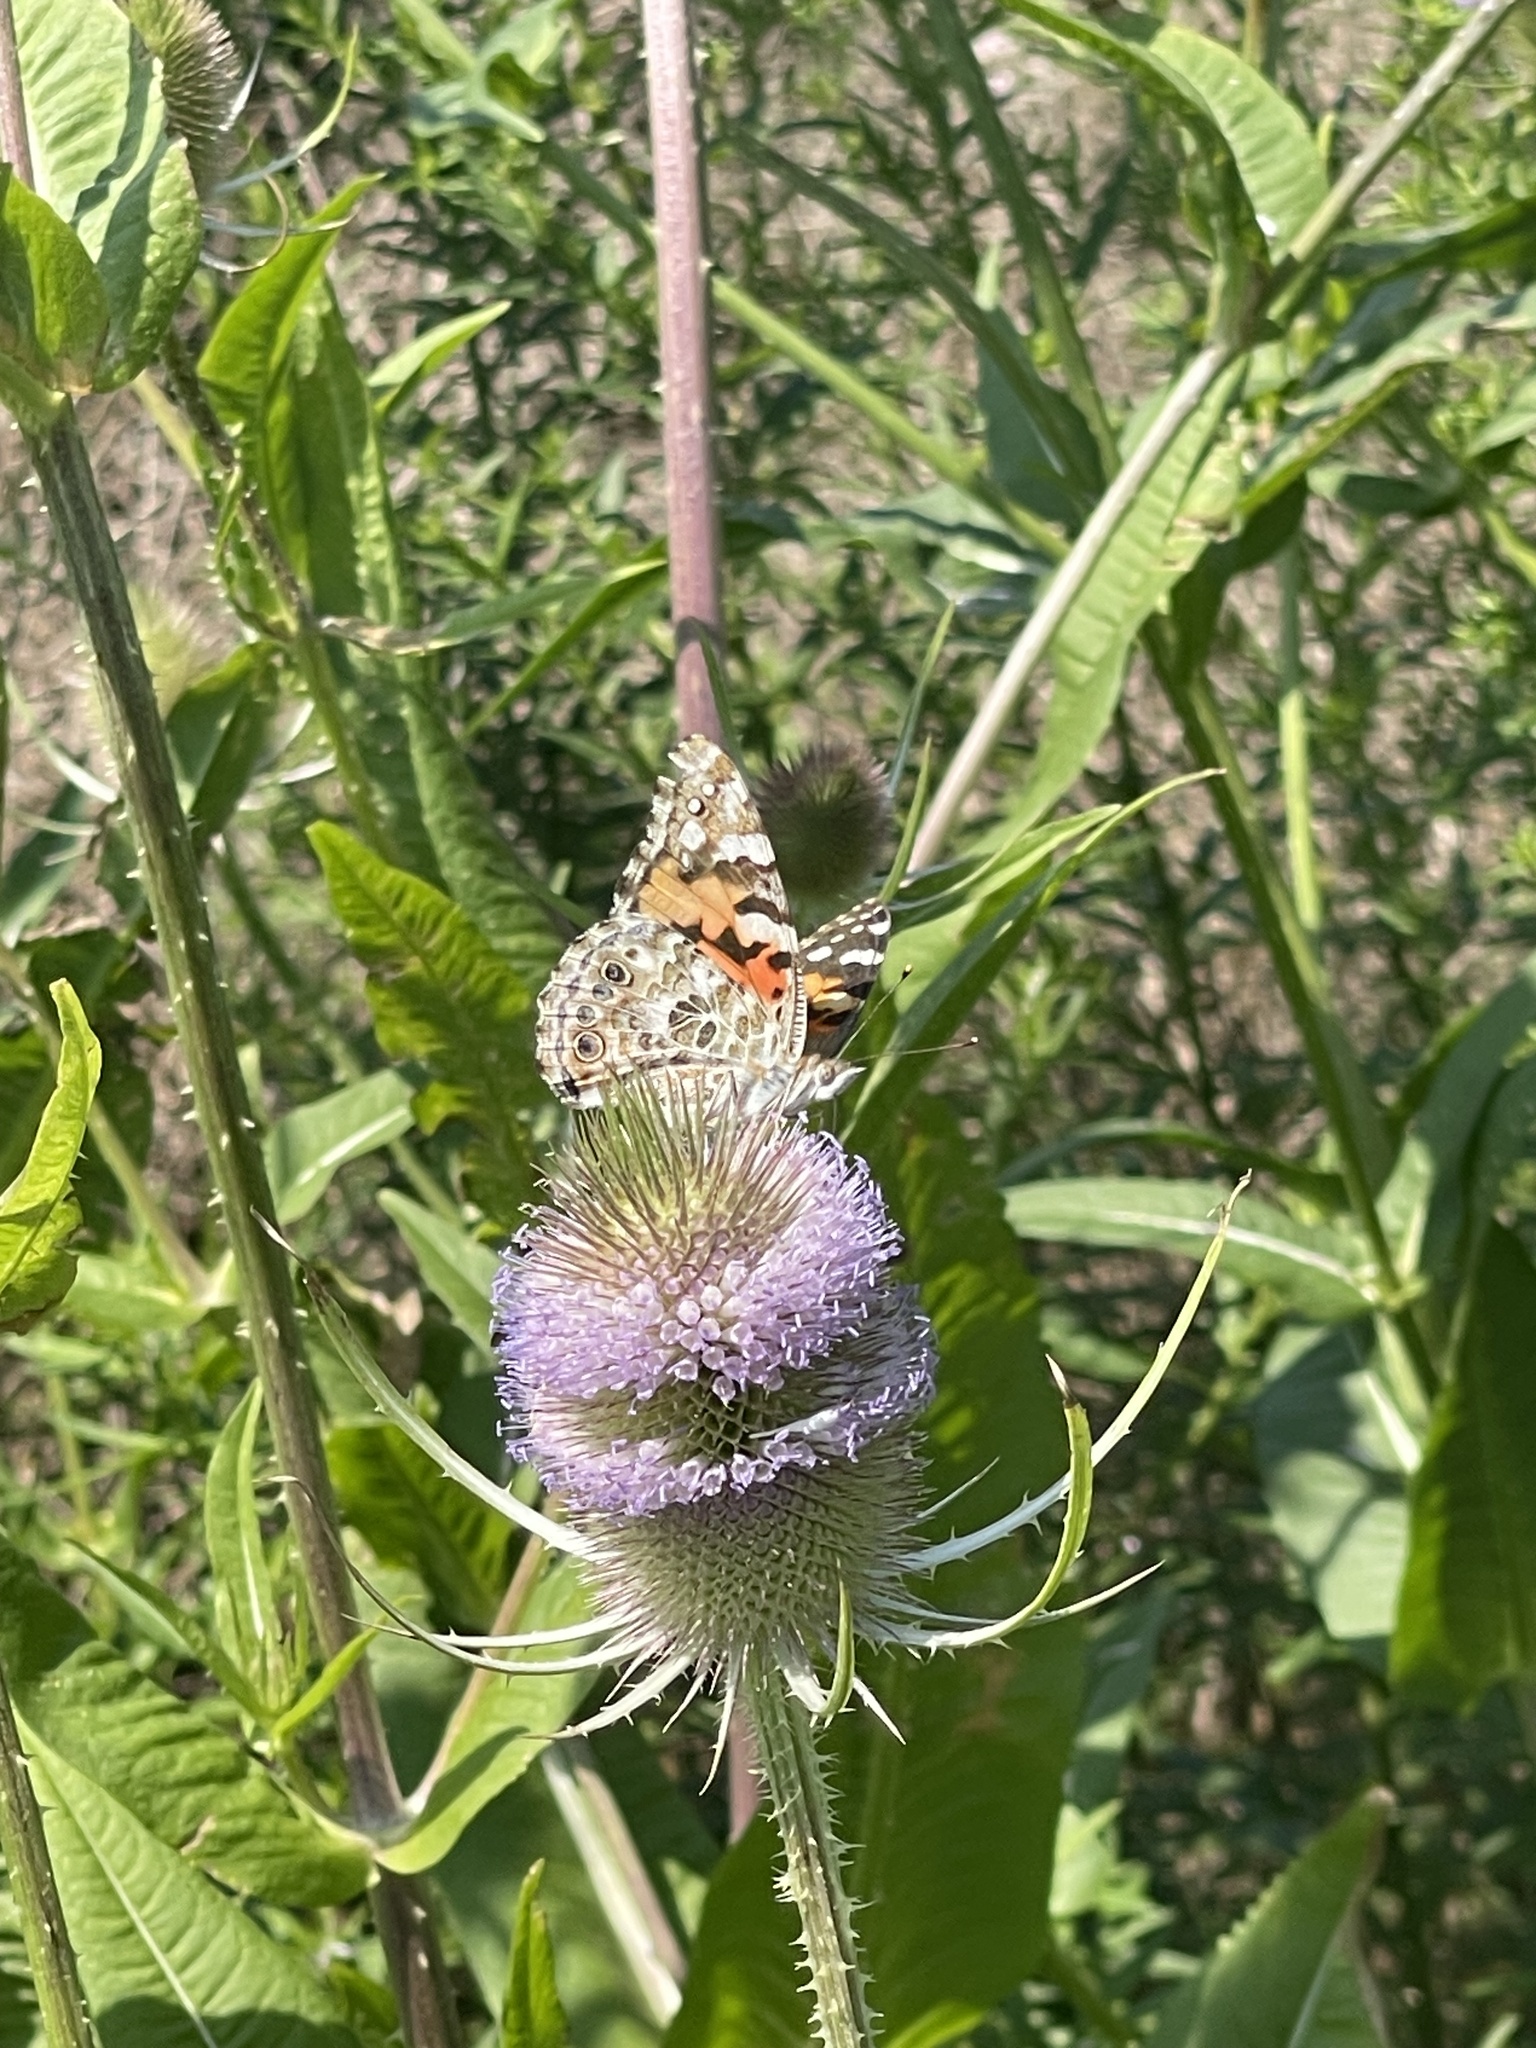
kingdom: Animalia
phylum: Arthropoda
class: Insecta
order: Lepidoptera
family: Nymphalidae
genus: Vanessa
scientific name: Vanessa cardui
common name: Painted lady
